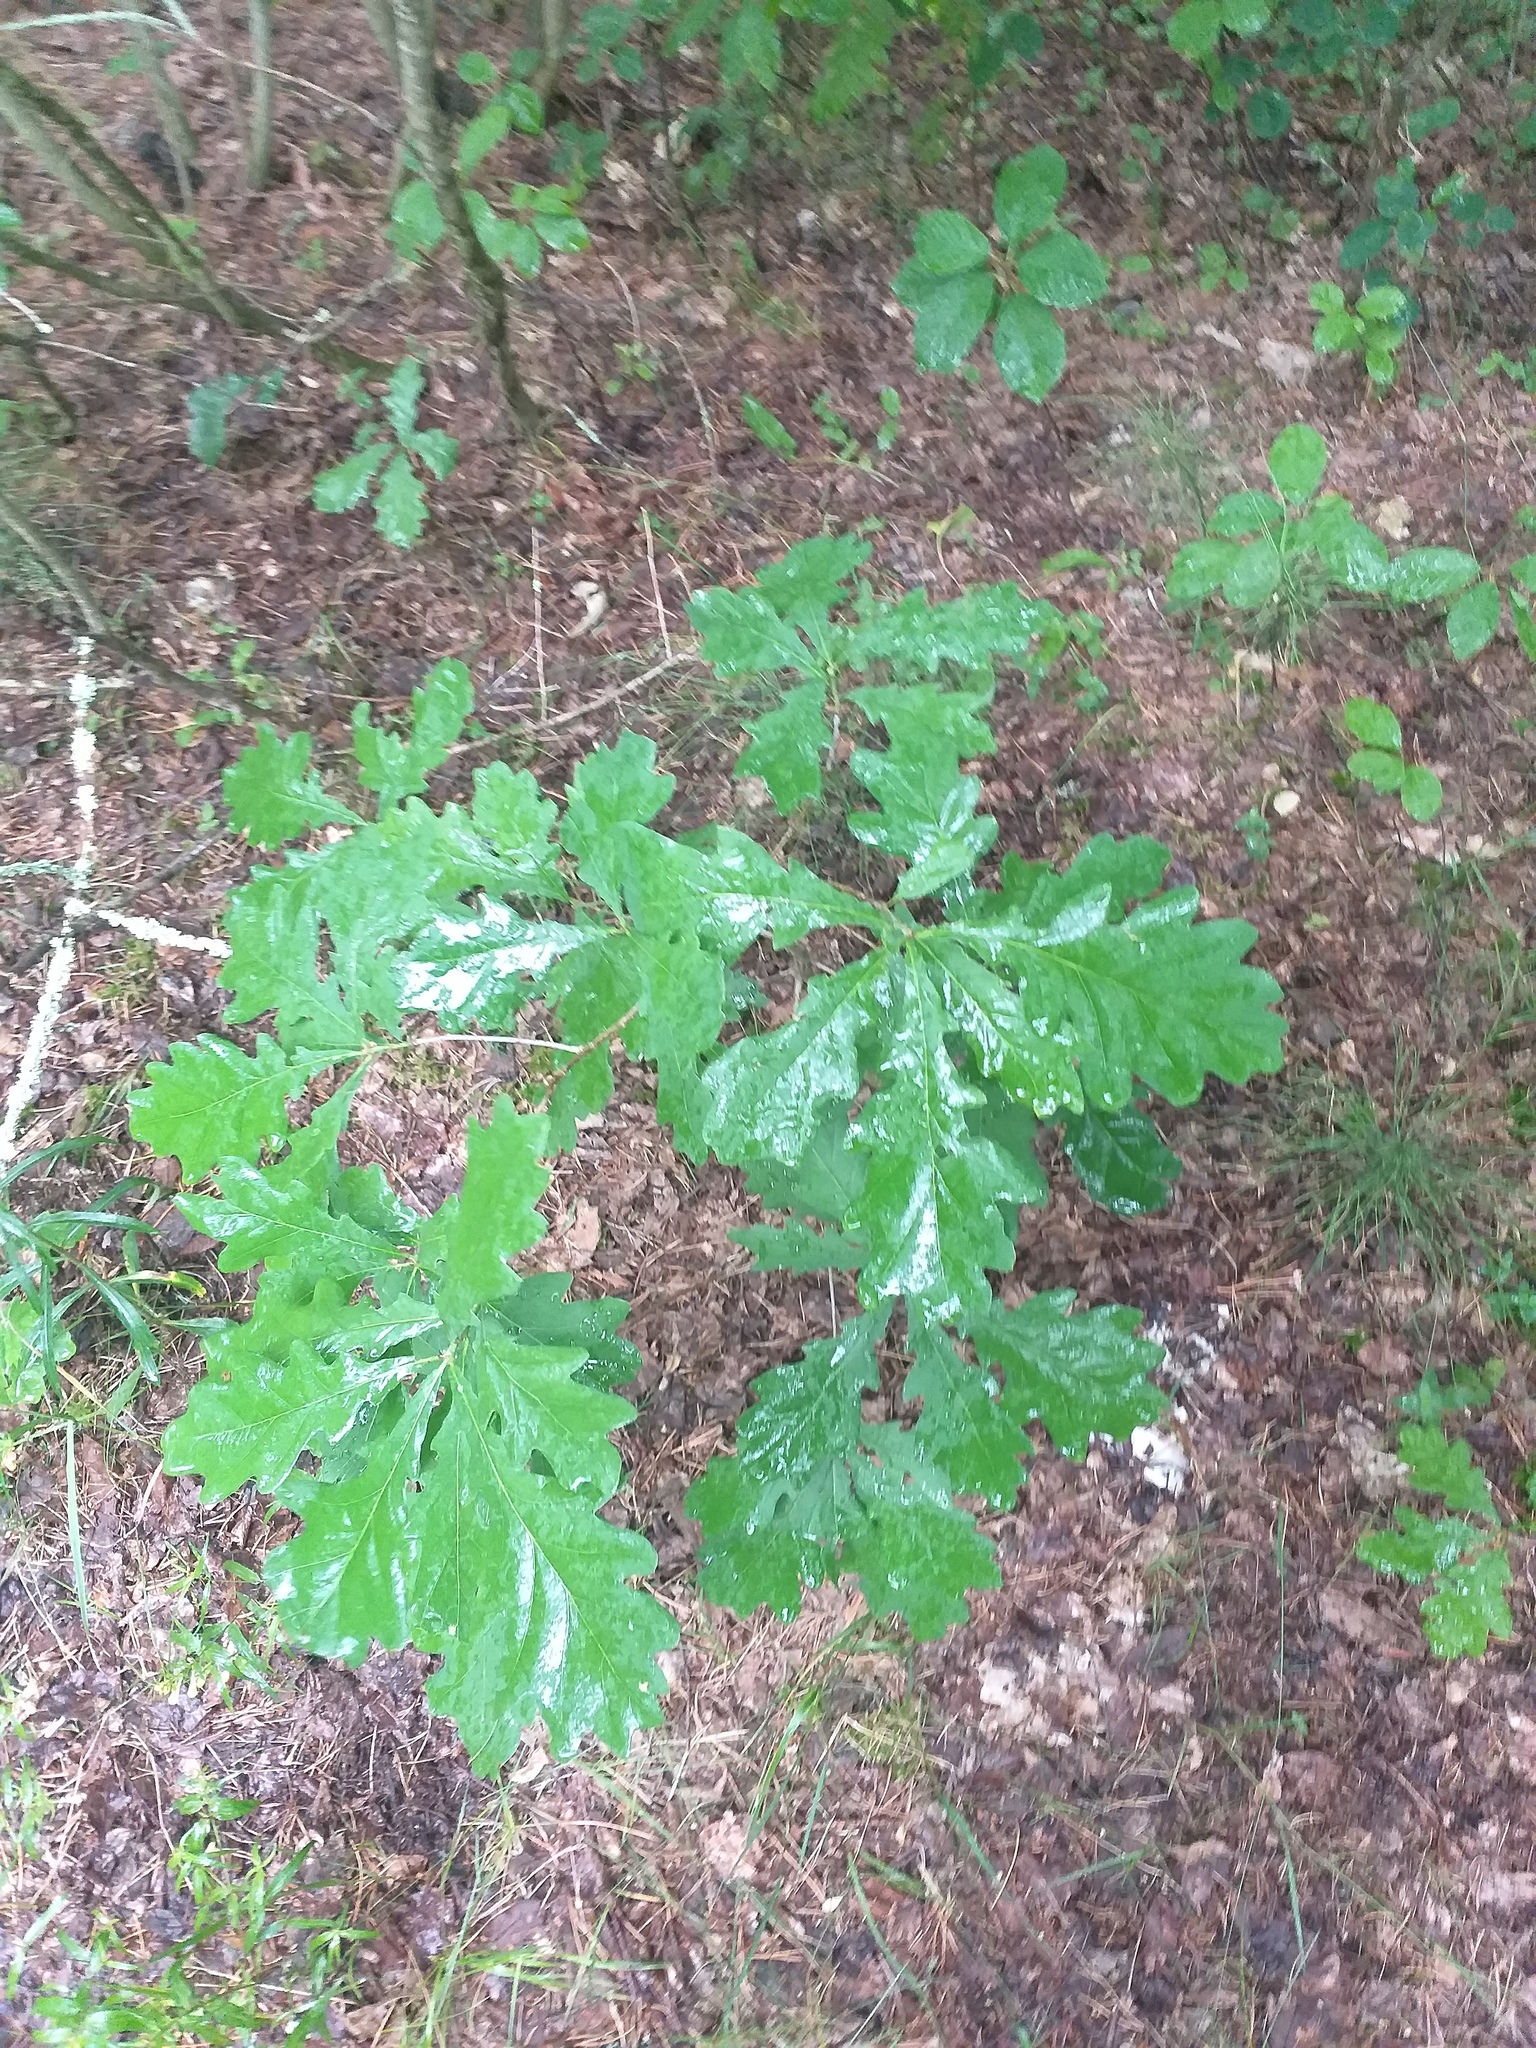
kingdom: Plantae
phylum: Tracheophyta
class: Magnoliopsida
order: Fagales
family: Fagaceae
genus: Quercus
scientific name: Quercus robur
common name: Pedunculate oak
